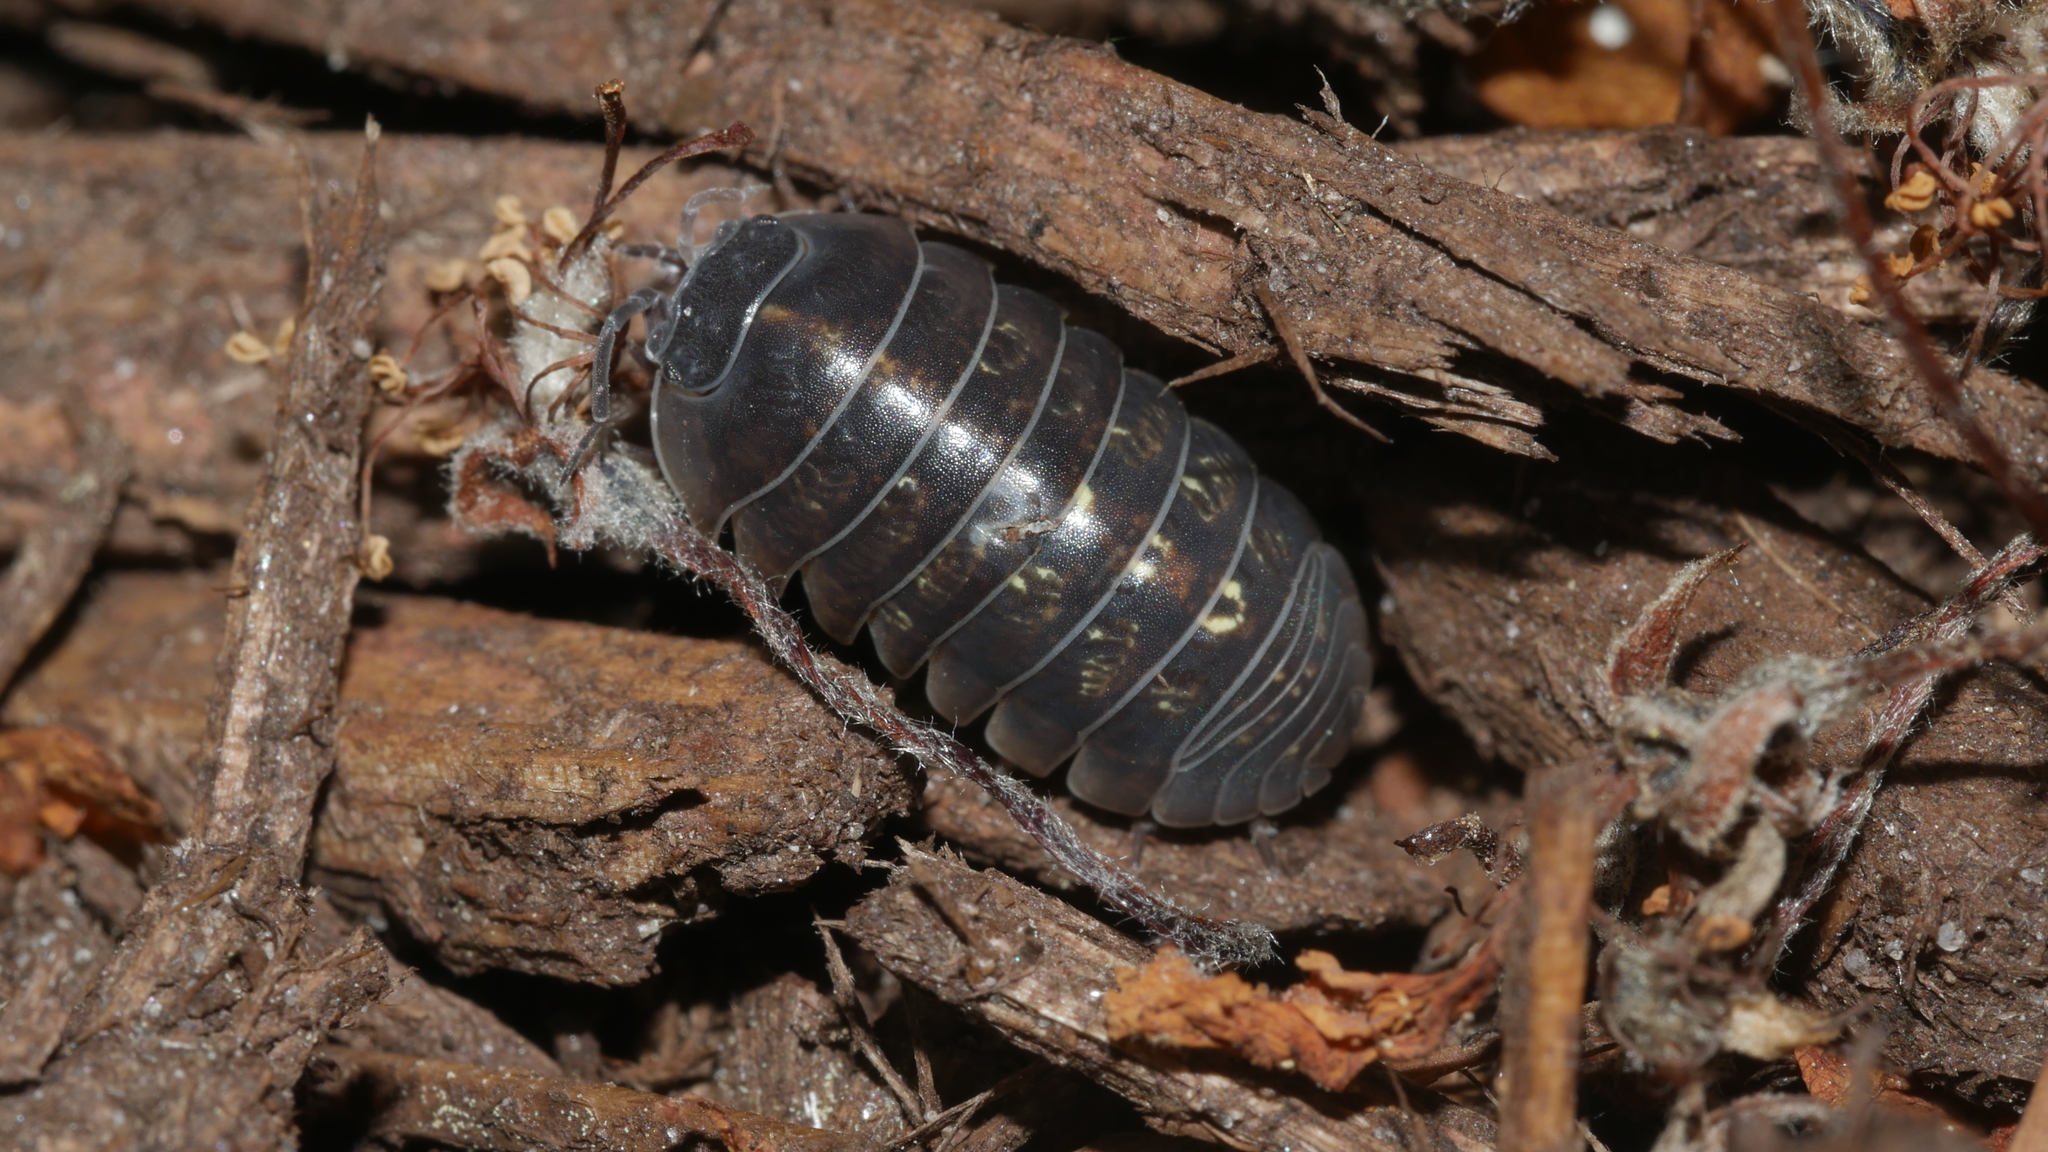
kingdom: Animalia
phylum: Arthropoda
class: Malacostraca
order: Isopoda
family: Armadillidiidae
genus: Armadillidium
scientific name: Armadillidium vulgare
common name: Common pill woodlouse
